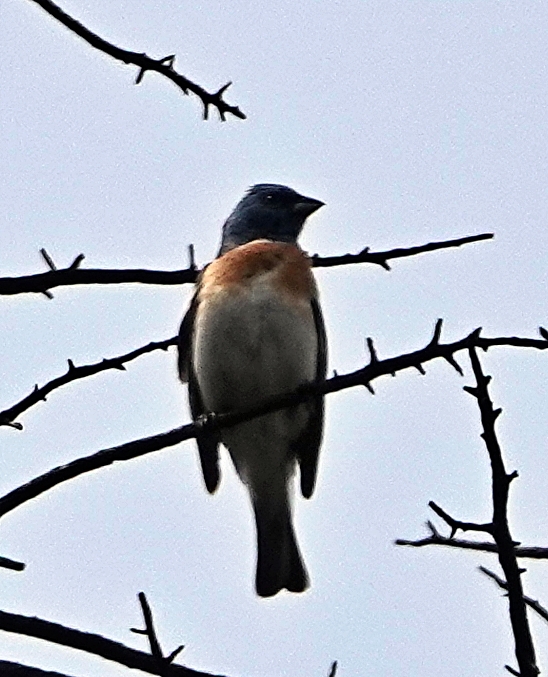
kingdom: Animalia
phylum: Chordata
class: Aves
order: Passeriformes
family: Cardinalidae
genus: Passerina
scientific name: Passerina amoena
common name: Lazuli bunting
